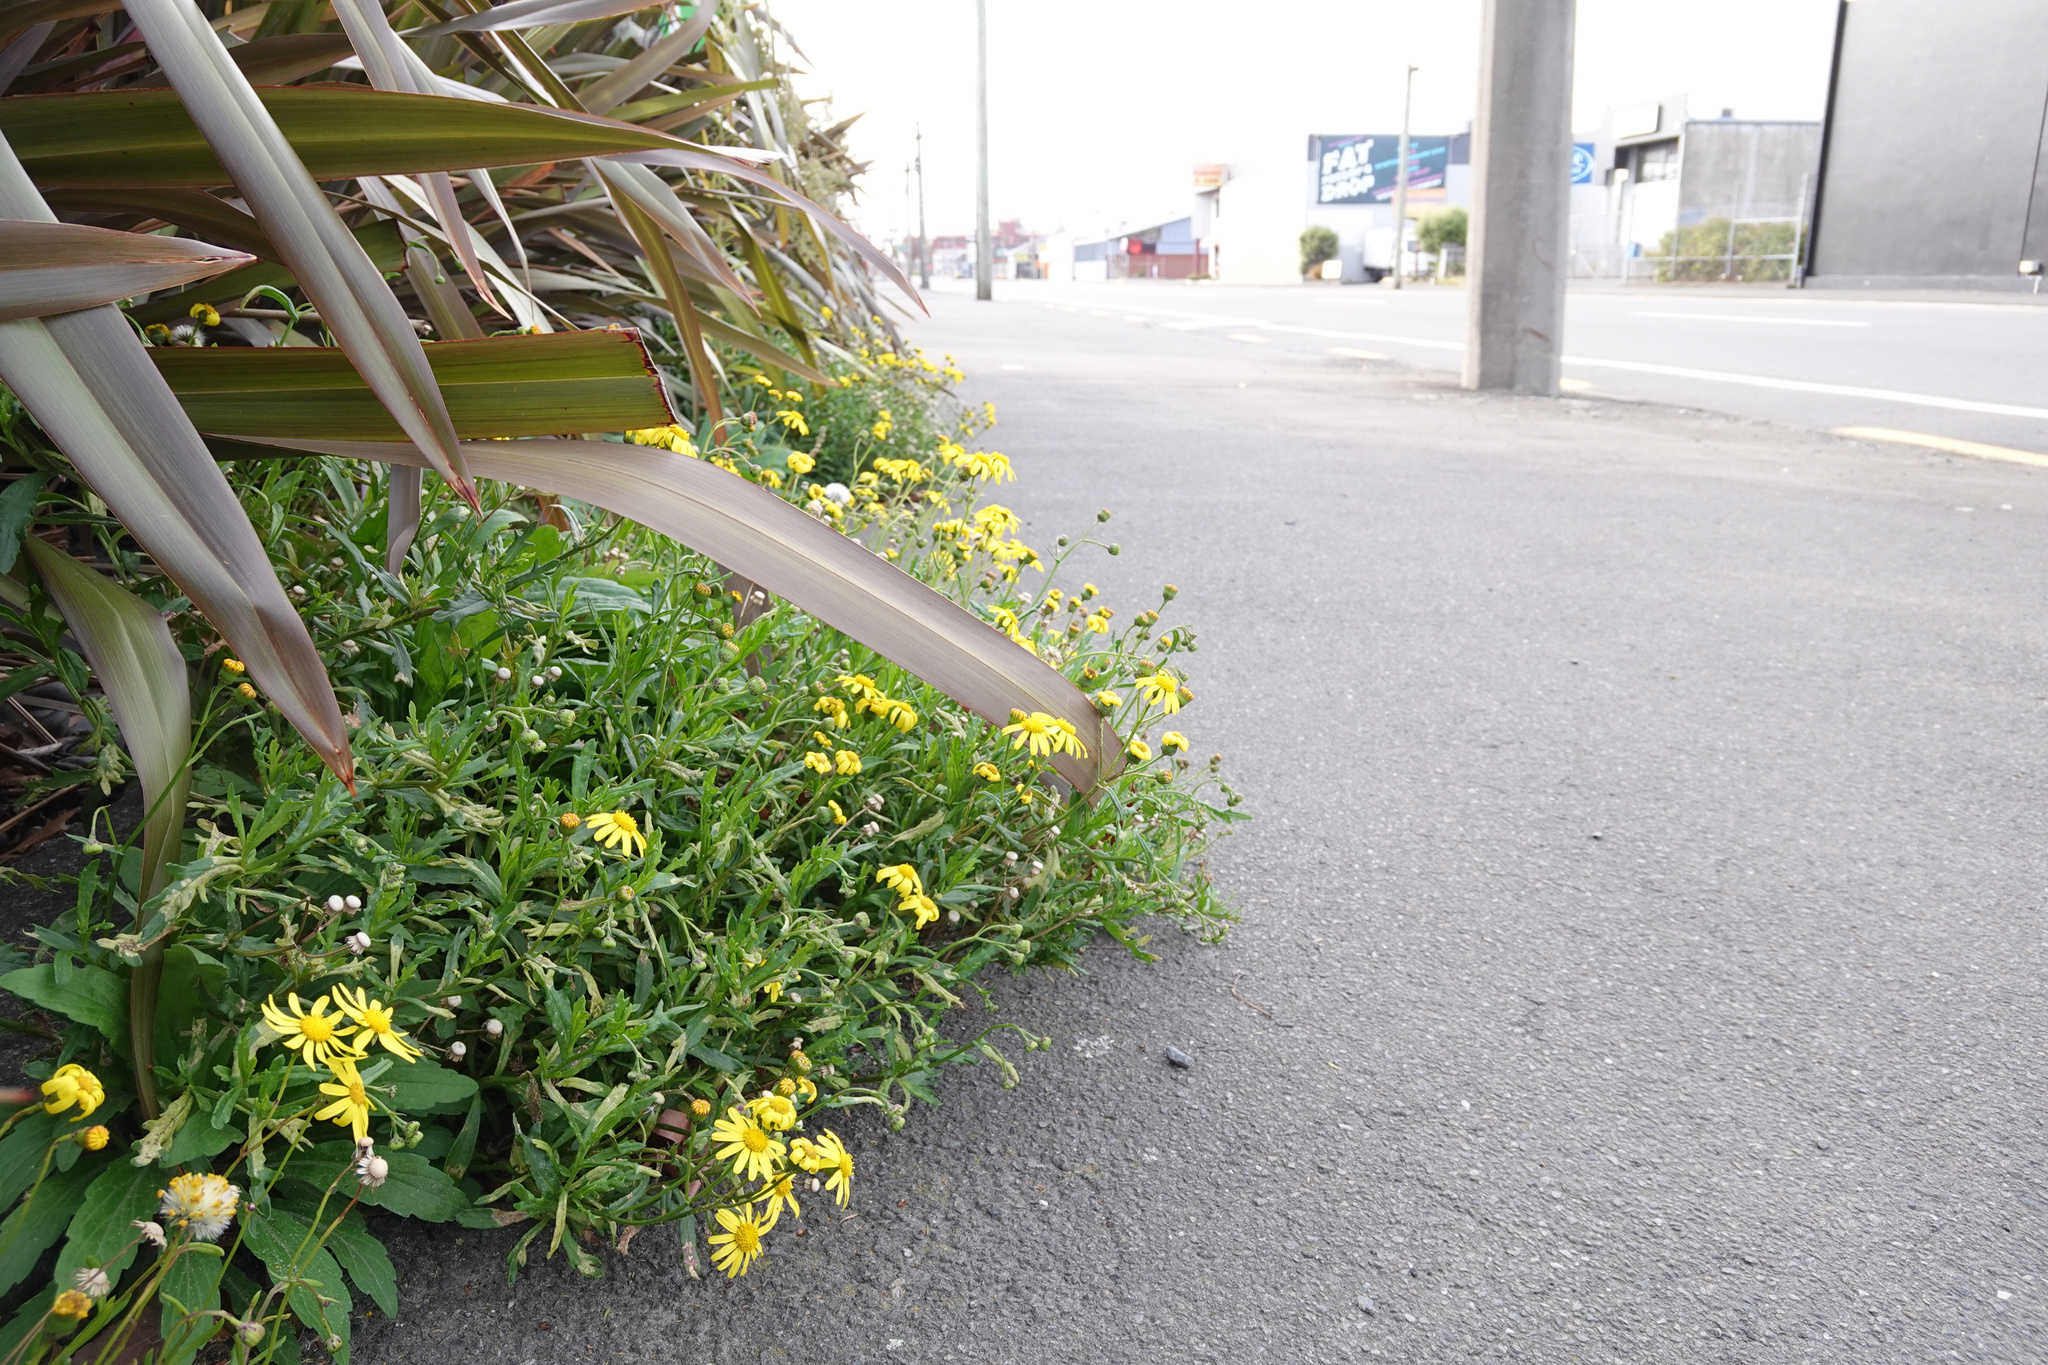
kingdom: Plantae
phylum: Tracheophyta
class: Magnoliopsida
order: Asterales
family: Asteraceae
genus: Senecio
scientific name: Senecio skirrhodon
